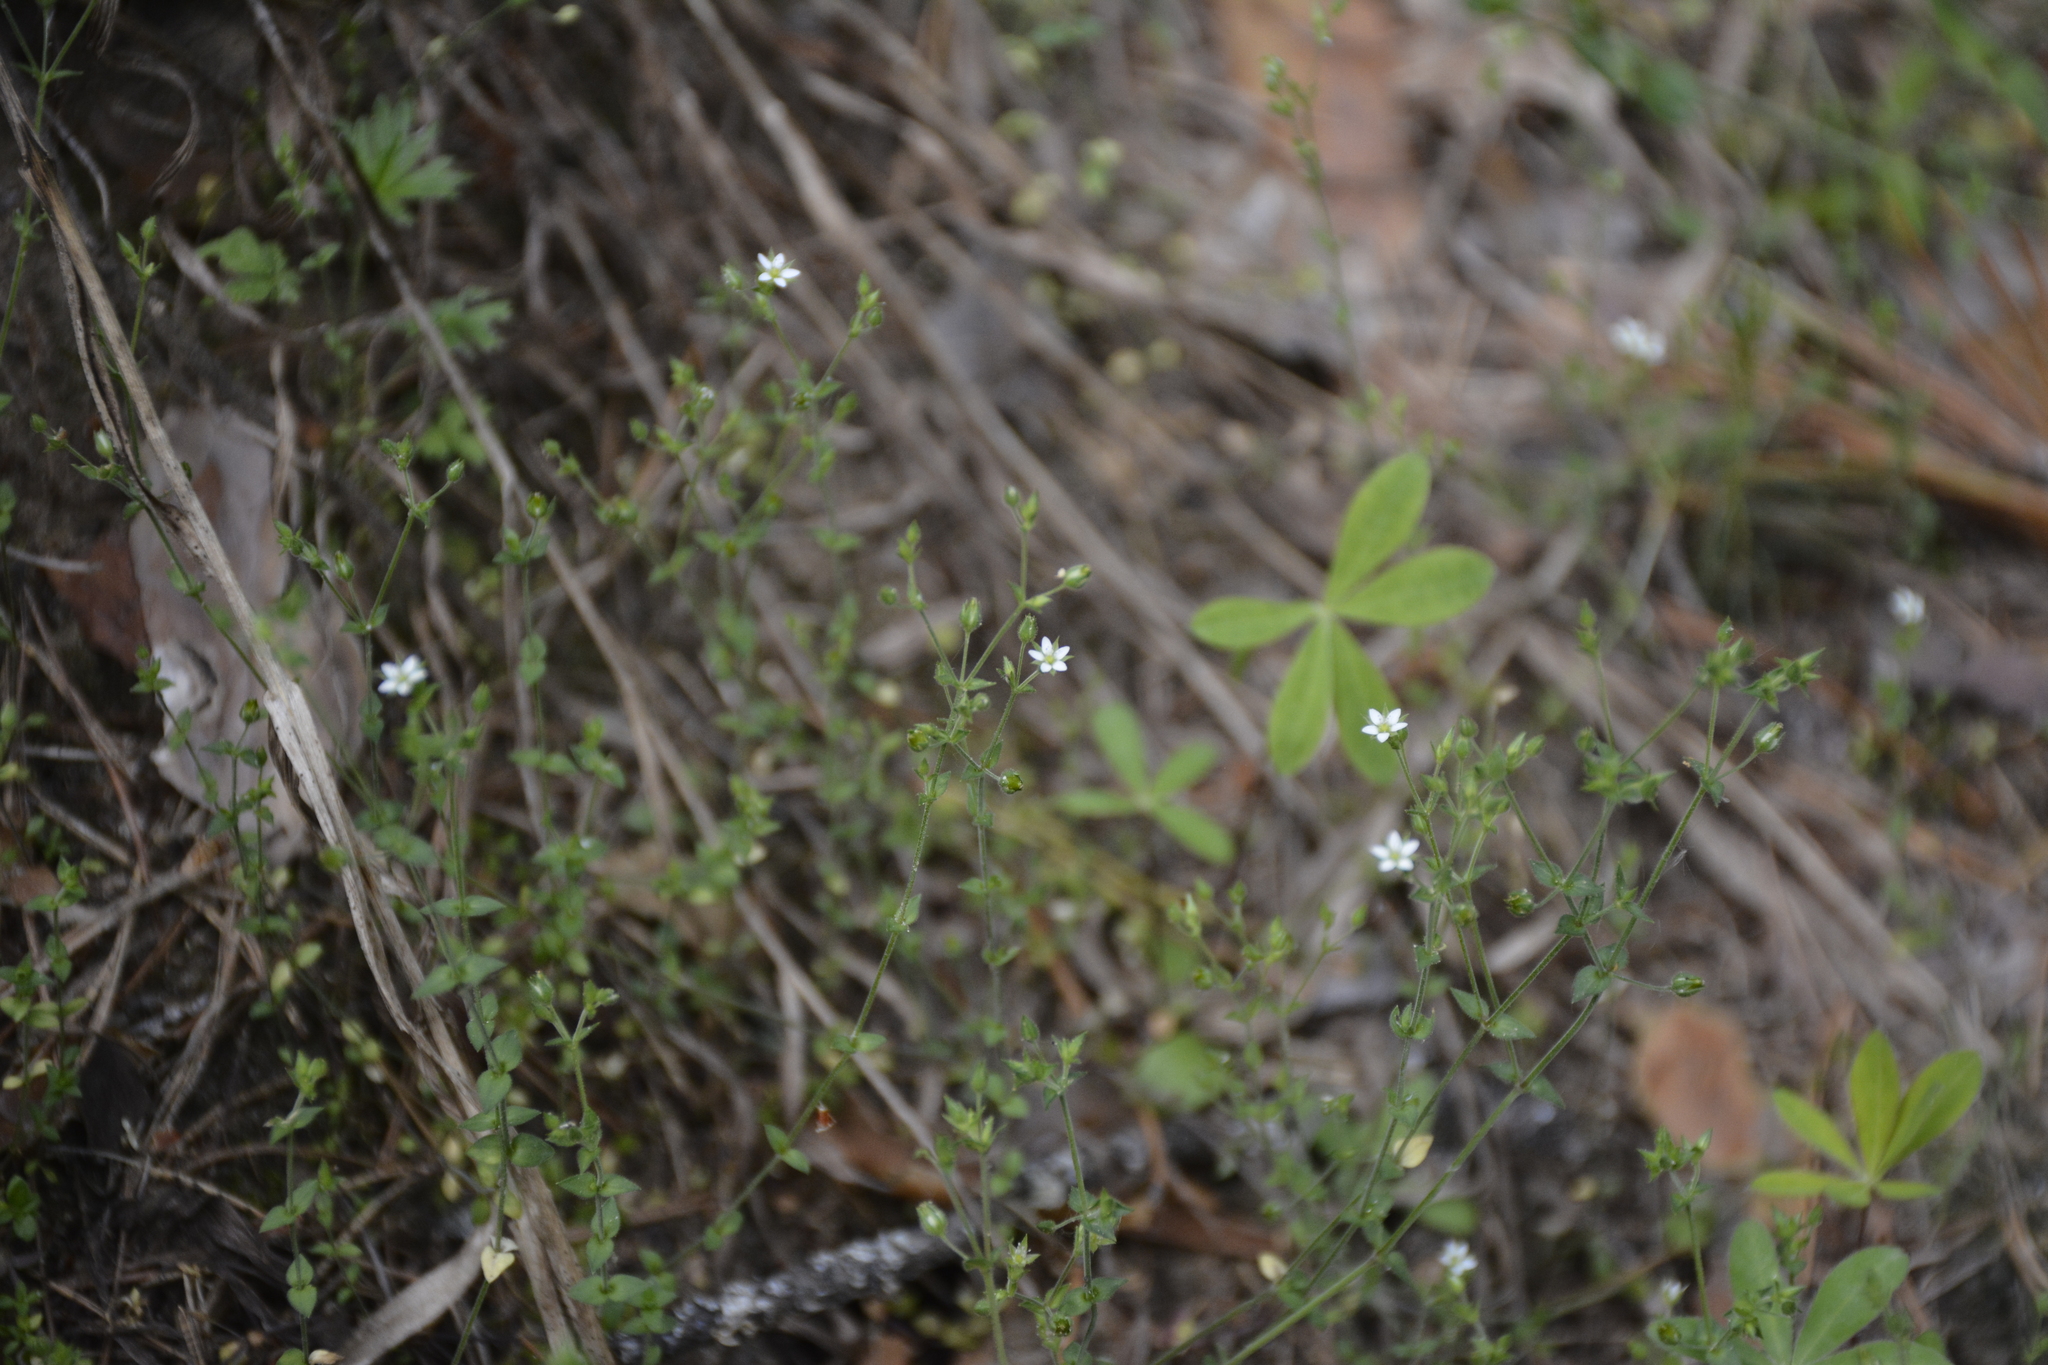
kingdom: Plantae
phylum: Tracheophyta
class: Magnoliopsida
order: Caryophyllales
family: Caryophyllaceae
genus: Arenaria
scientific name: Arenaria serpyllifolia
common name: Thyme-leaved sandwort
